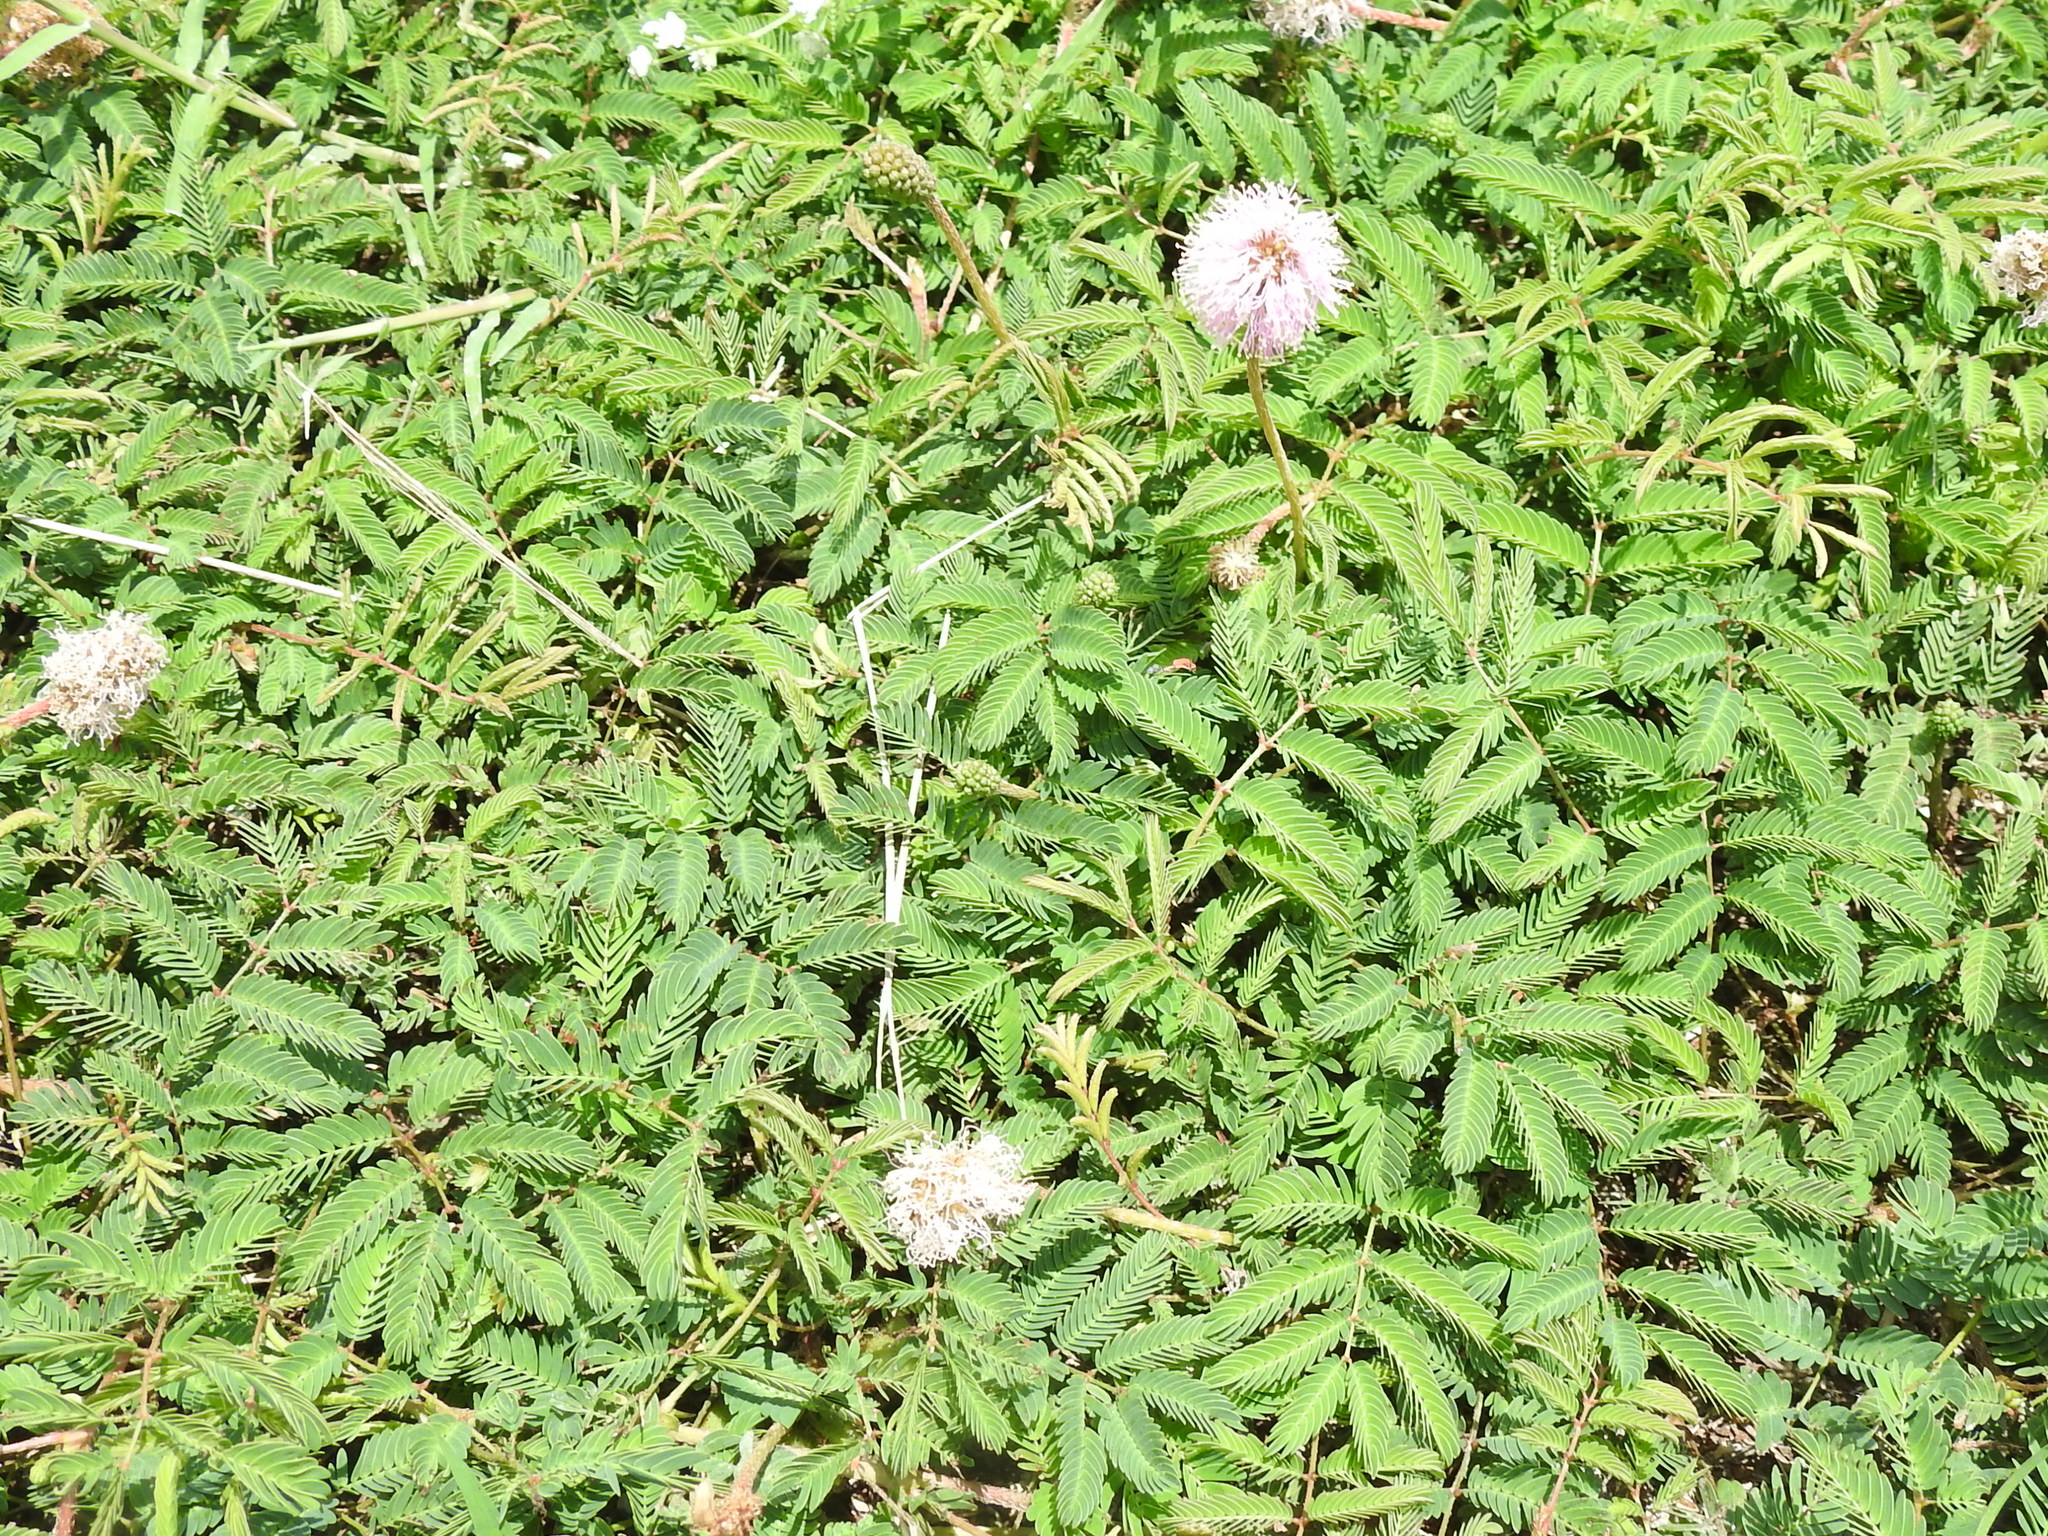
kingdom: Plantae
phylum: Tracheophyta
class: Magnoliopsida
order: Fabales
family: Fabaceae
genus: Mimosa
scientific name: Mimosa strigillosa
